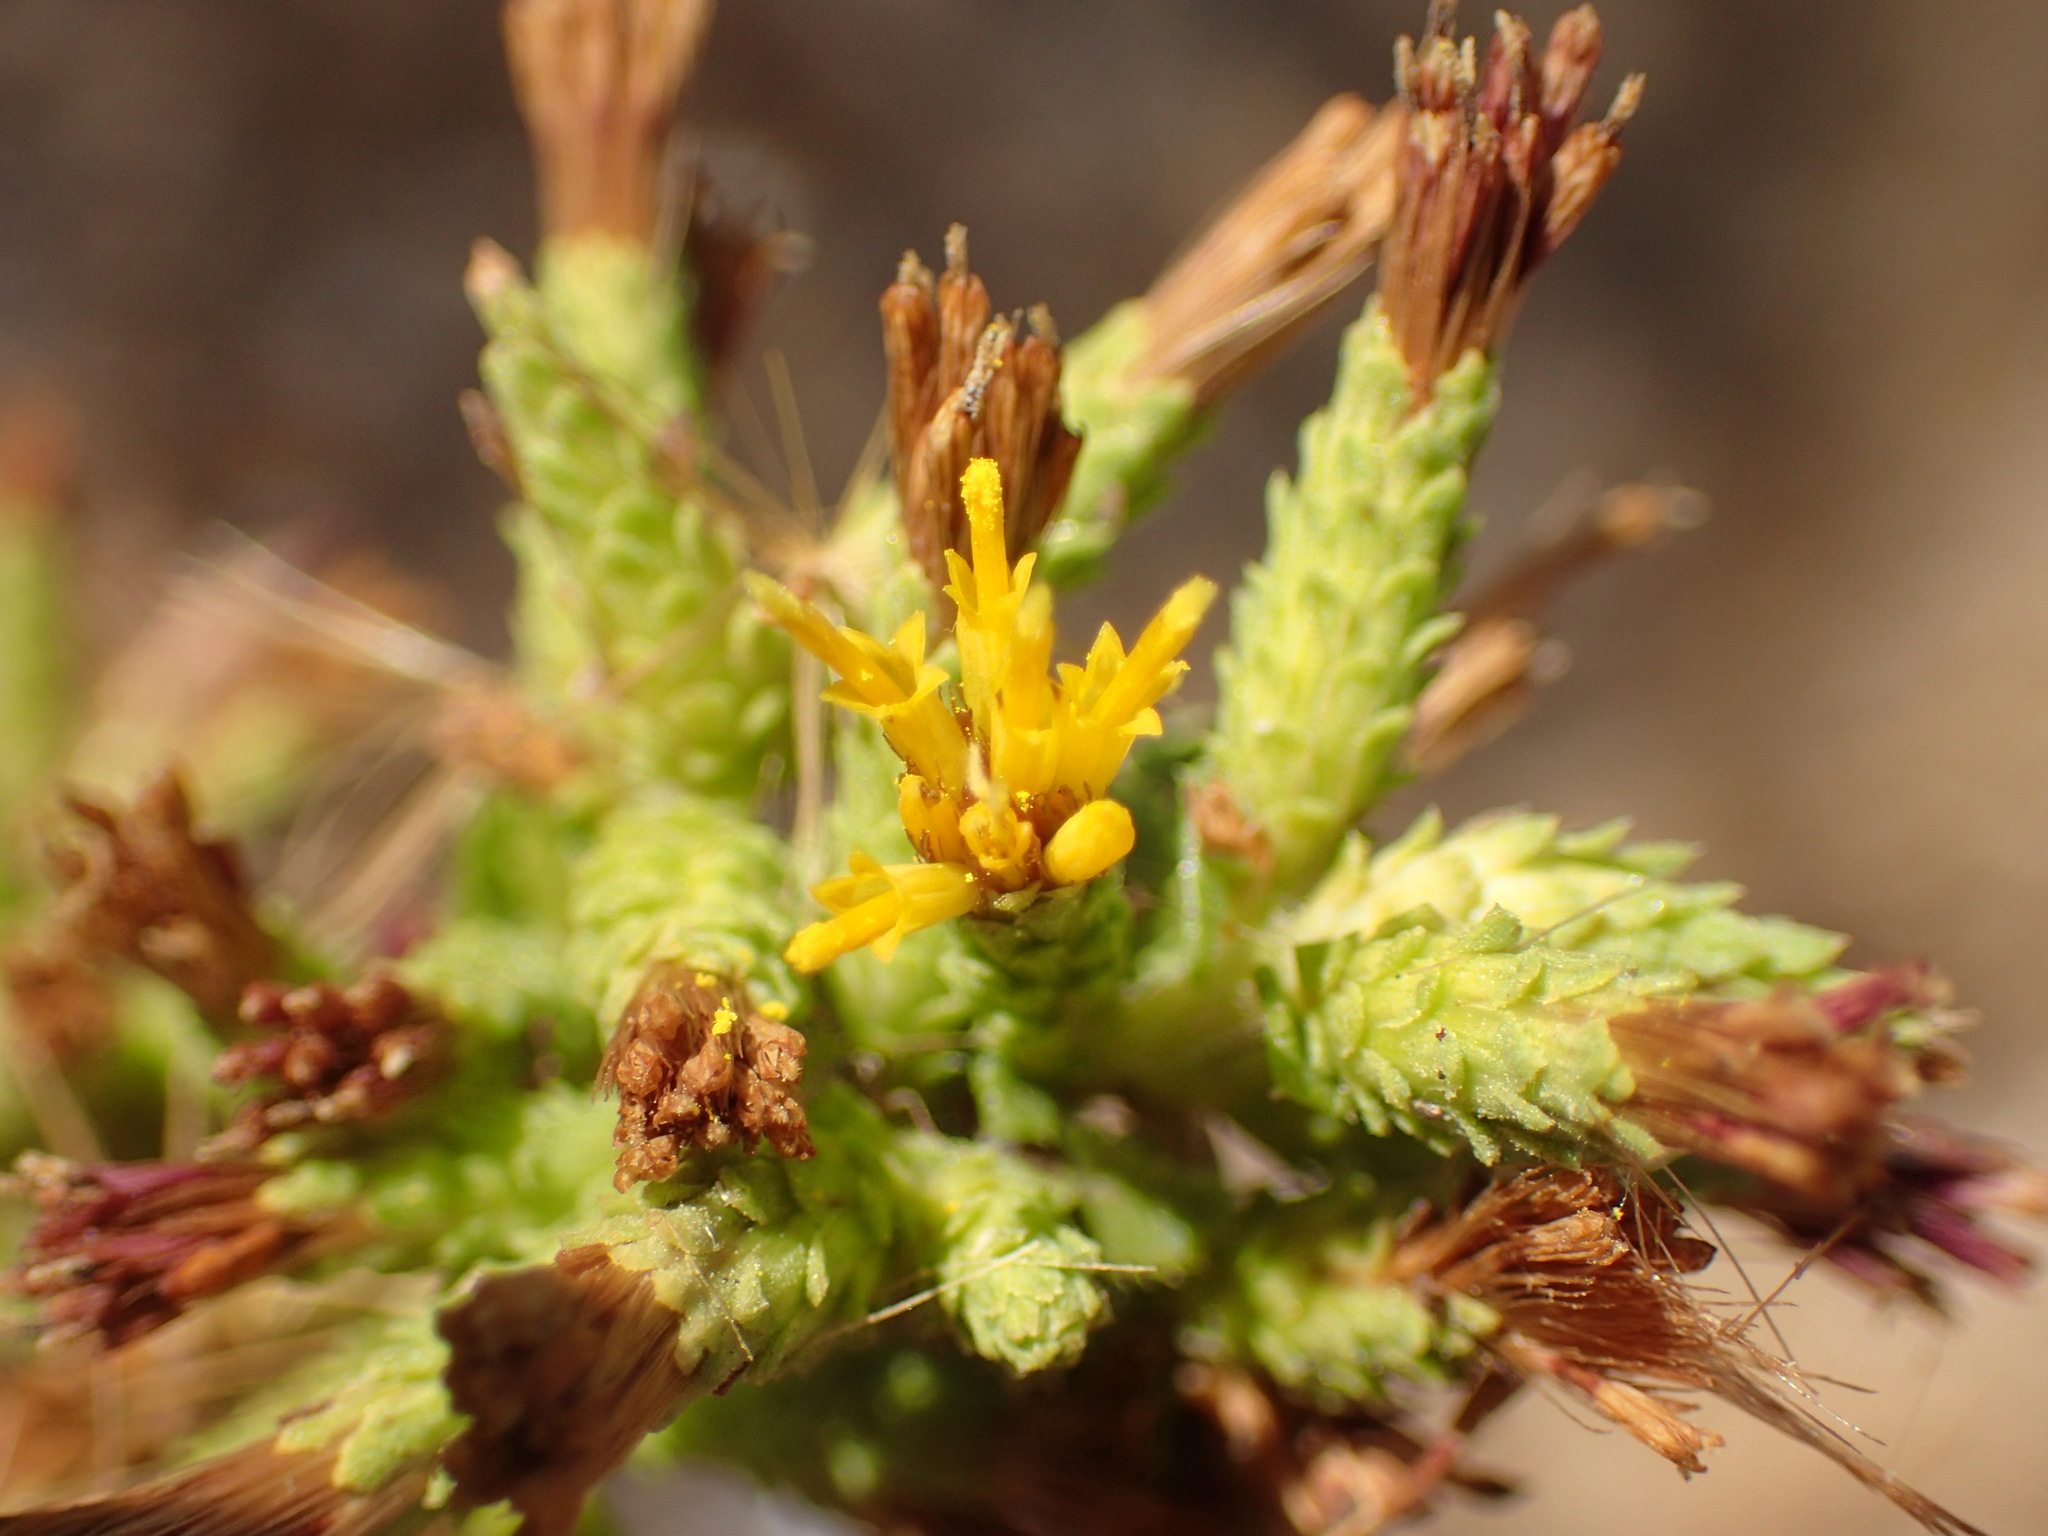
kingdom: Plantae
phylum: Tracheophyta
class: Magnoliopsida
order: Asterales
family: Asteraceae
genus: Hazardia
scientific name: Hazardia squarrosa
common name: Saw-tooth goldenbush
